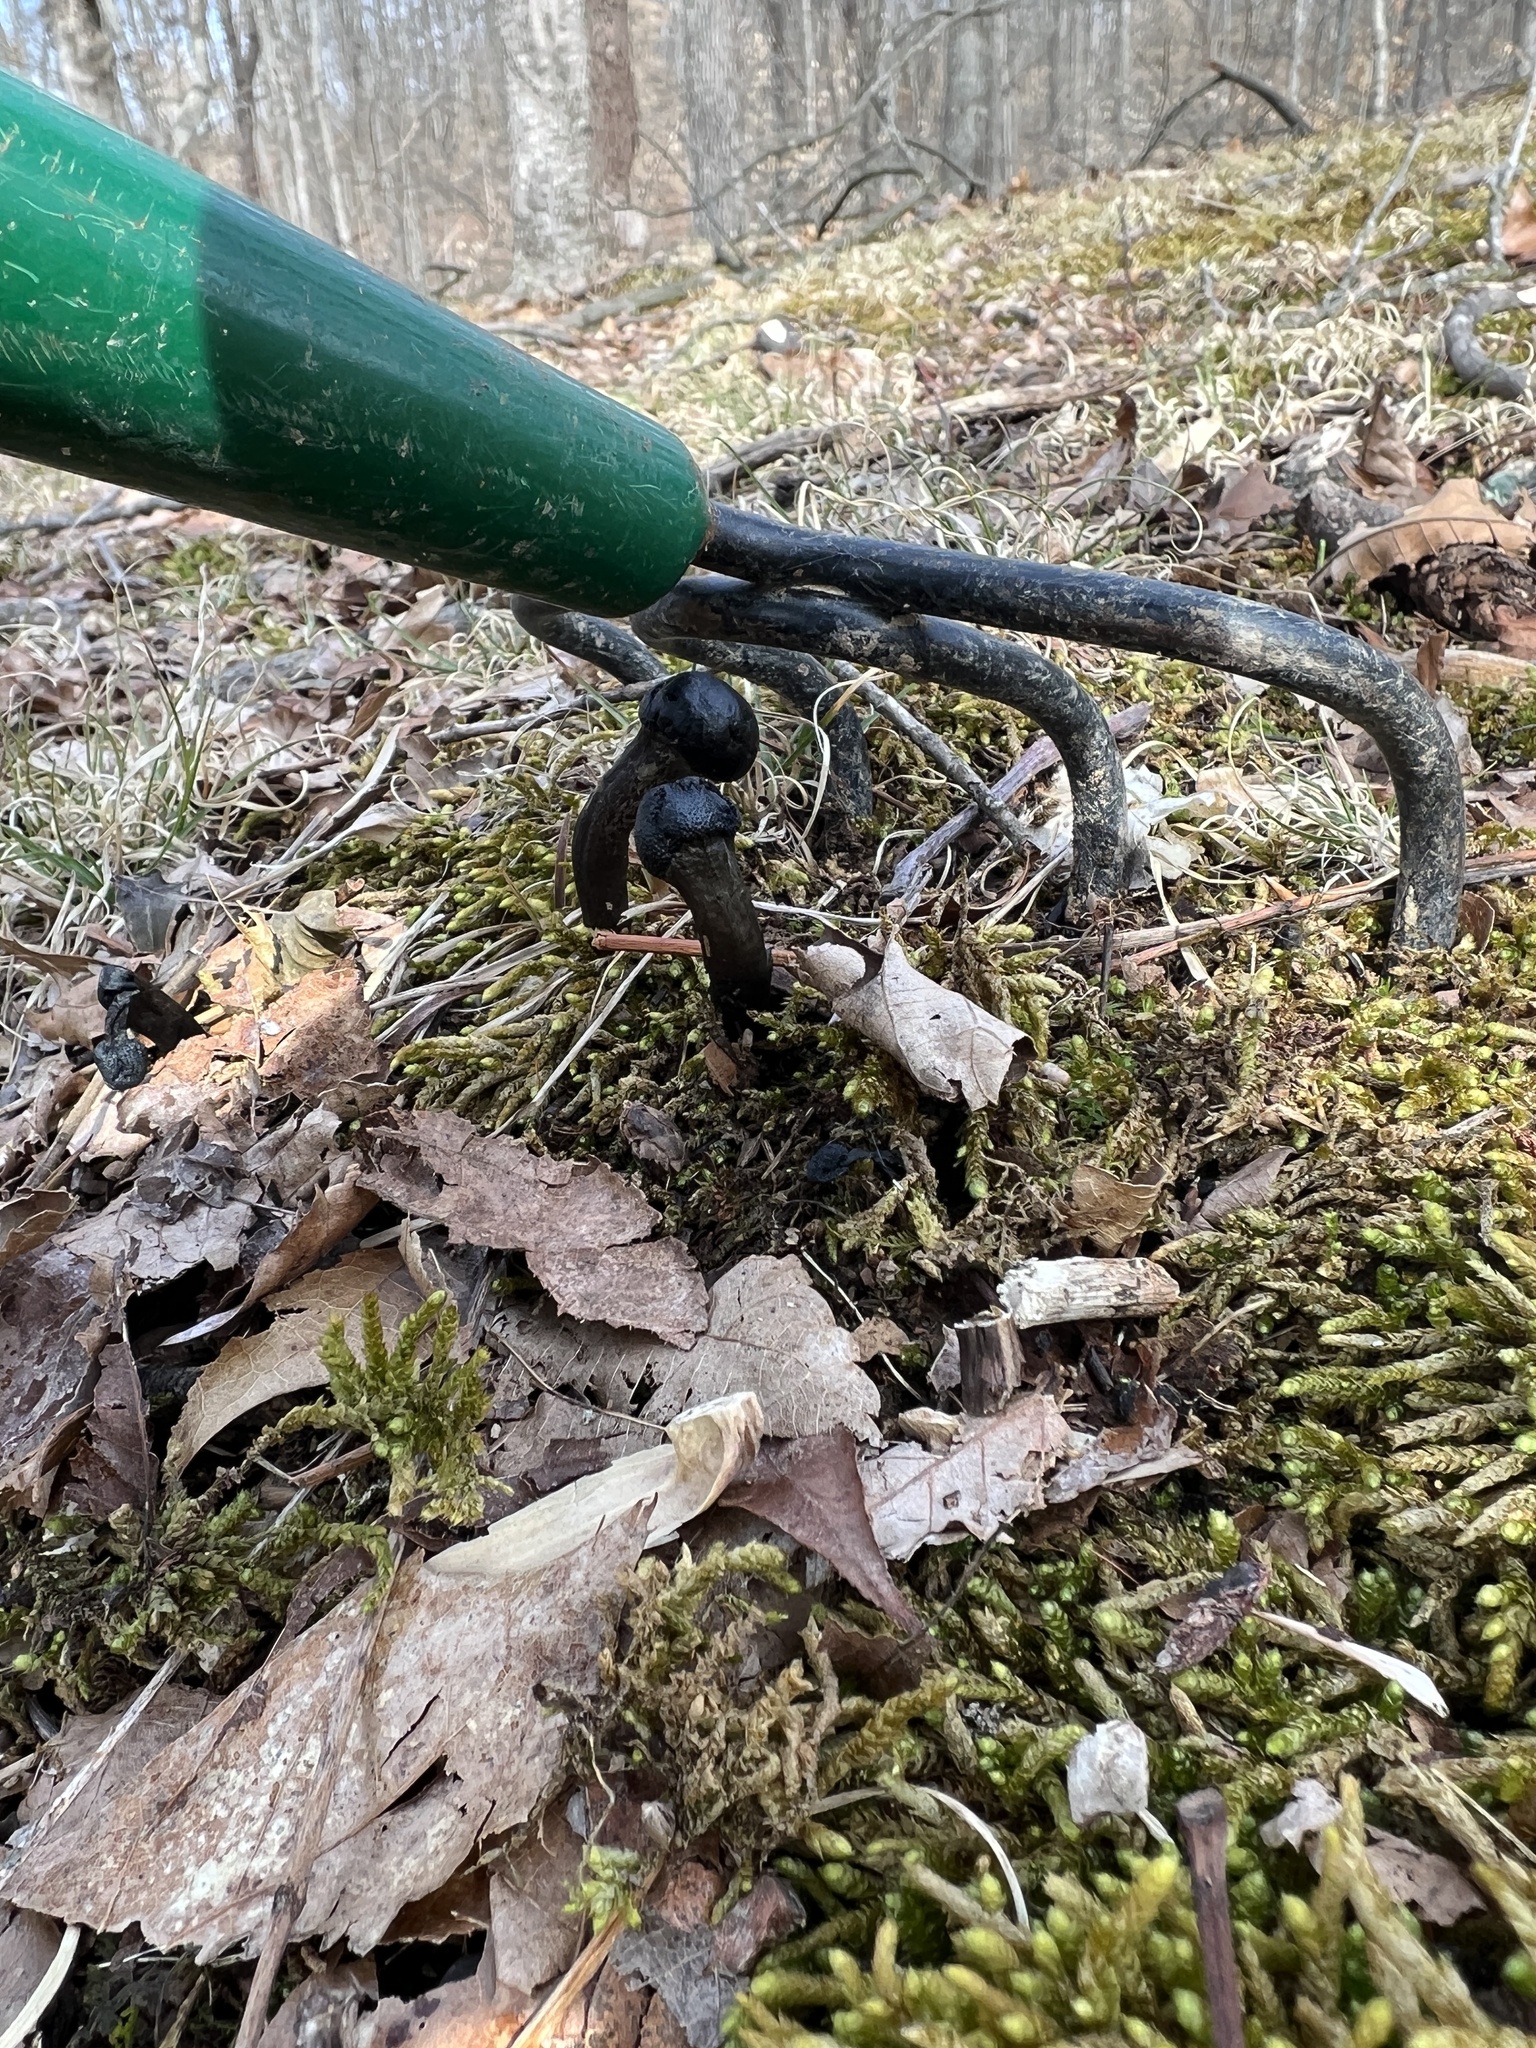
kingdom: Fungi
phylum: Ascomycota
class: Sordariomycetes
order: Hypocreales
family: Ophiocordycipitaceae
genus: Tolypocladium
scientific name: Tolypocladium longisegmentatum
